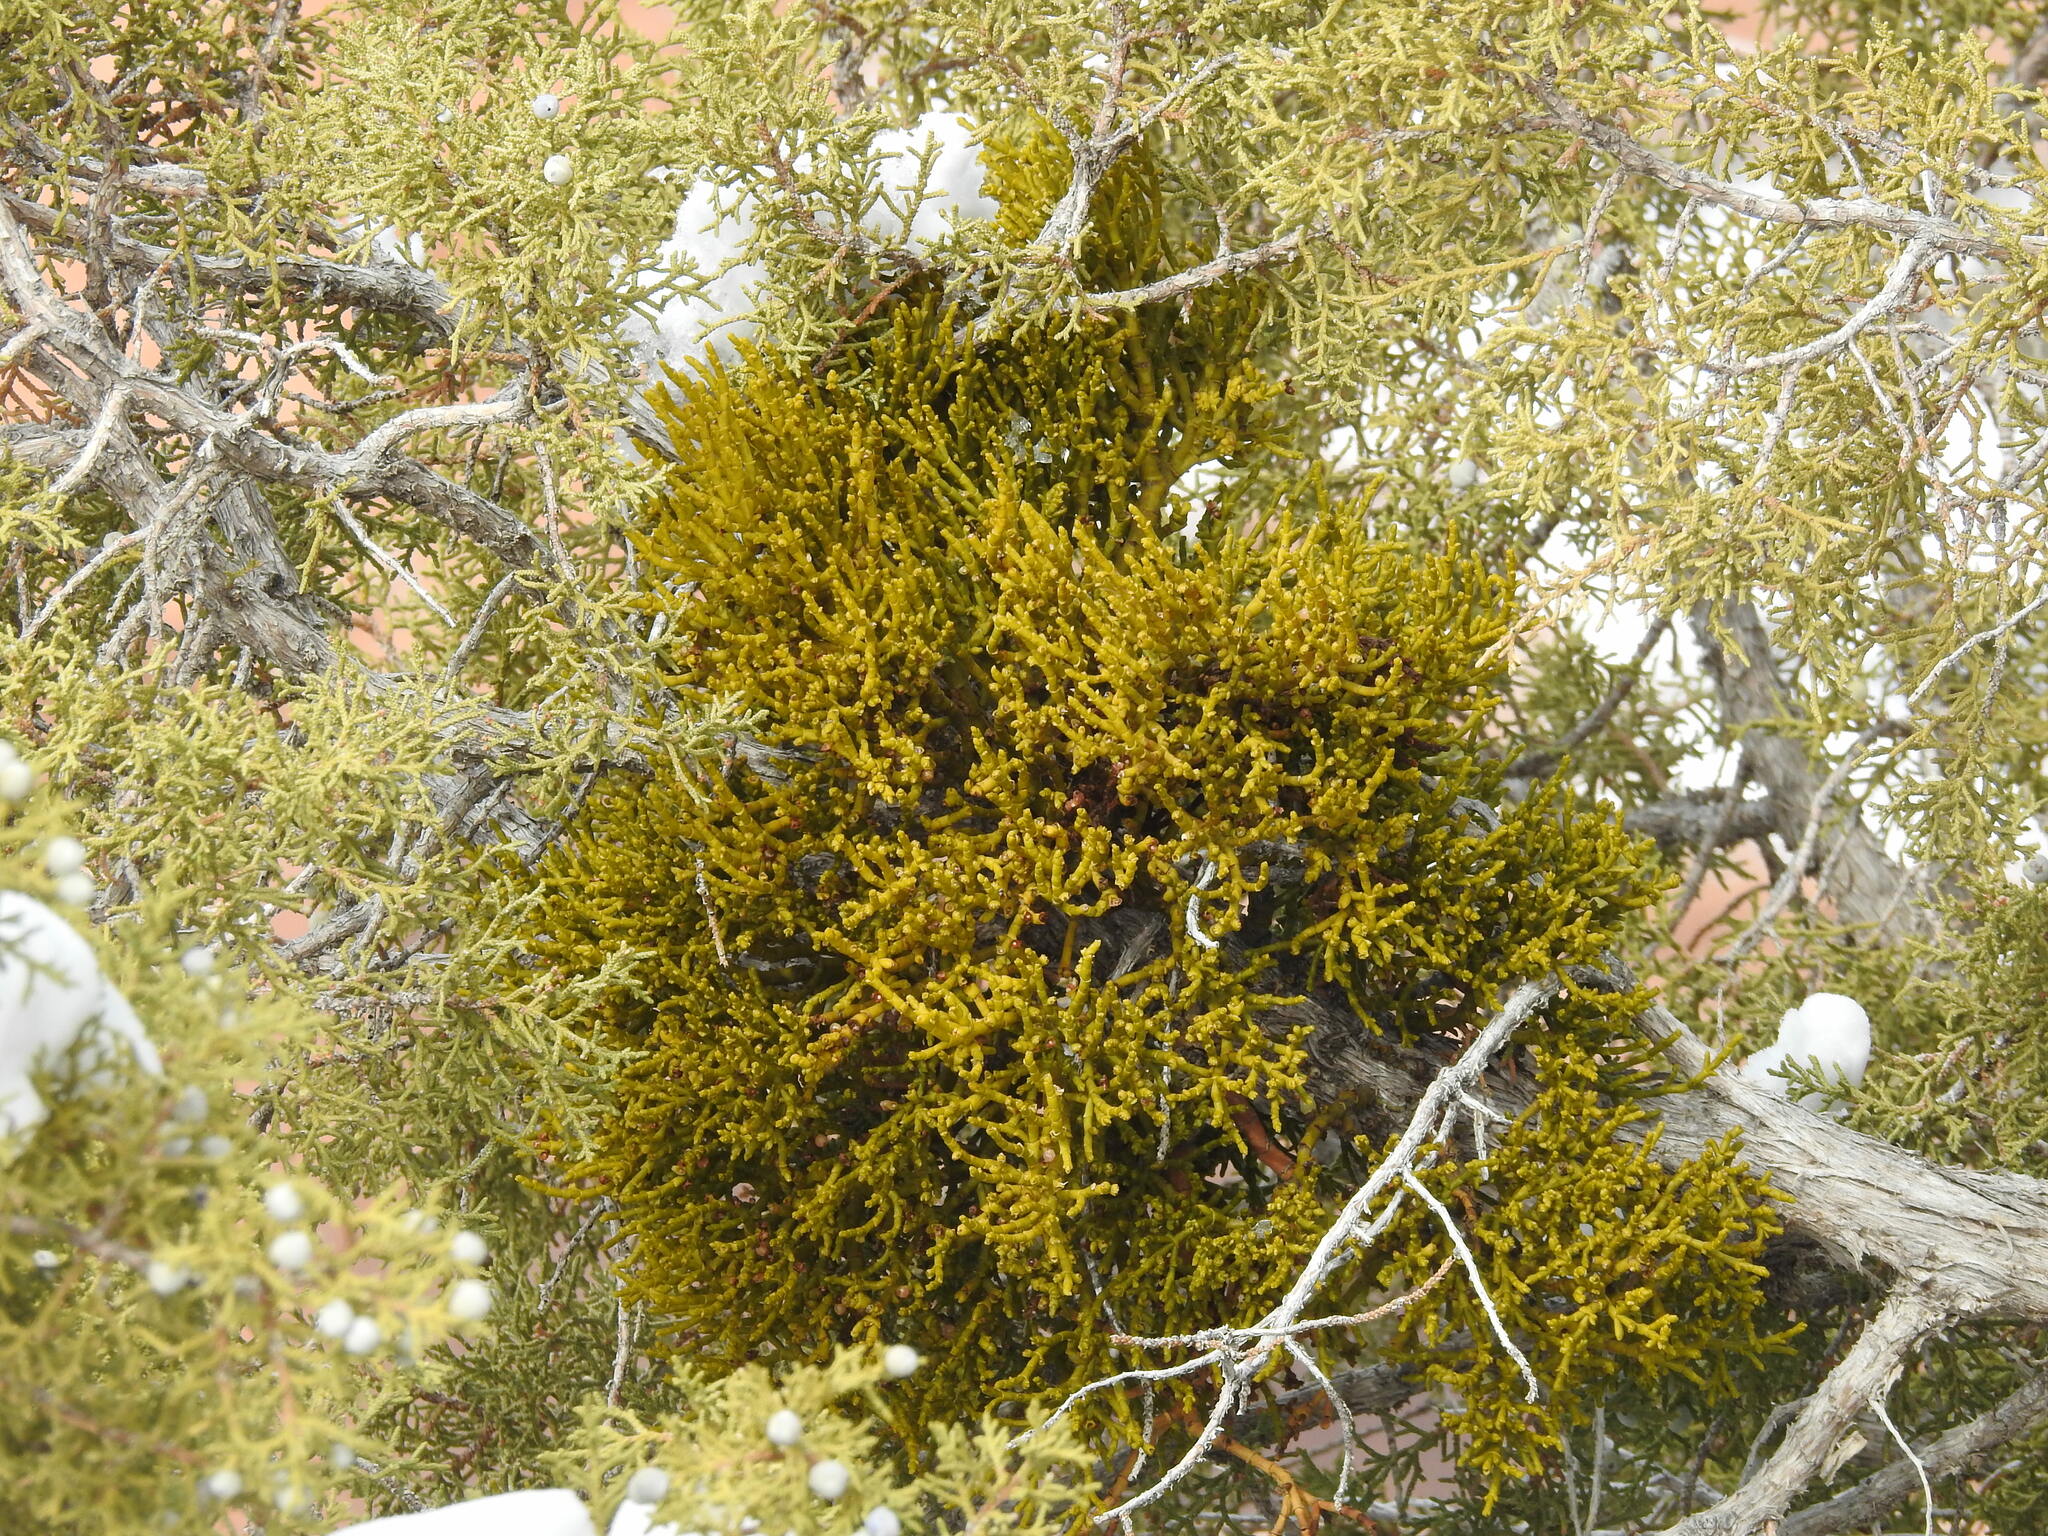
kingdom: Plantae
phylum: Tracheophyta
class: Magnoliopsida
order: Santalales
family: Viscaceae
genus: Phoradendron
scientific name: Phoradendron juniperinum
